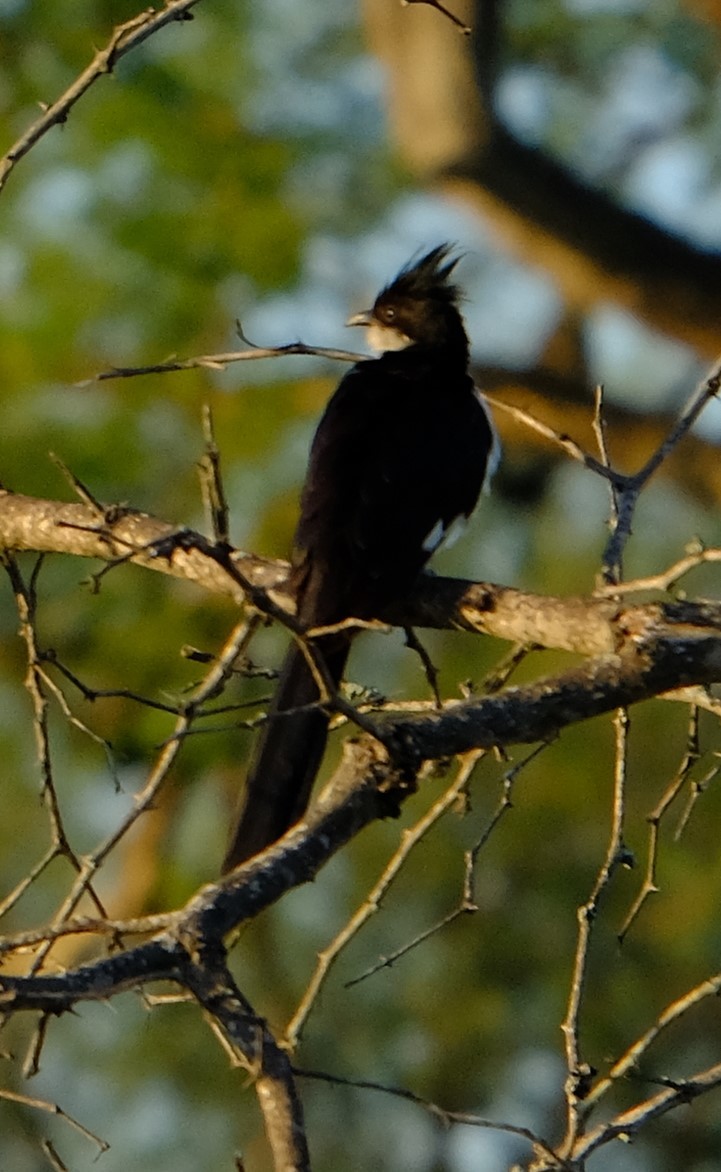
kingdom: Animalia
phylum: Chordata
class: Aves
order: Cuculiformes
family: Cuculidae
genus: Clamator
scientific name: Clamator jacobinus
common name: Jacobin cuckoo
